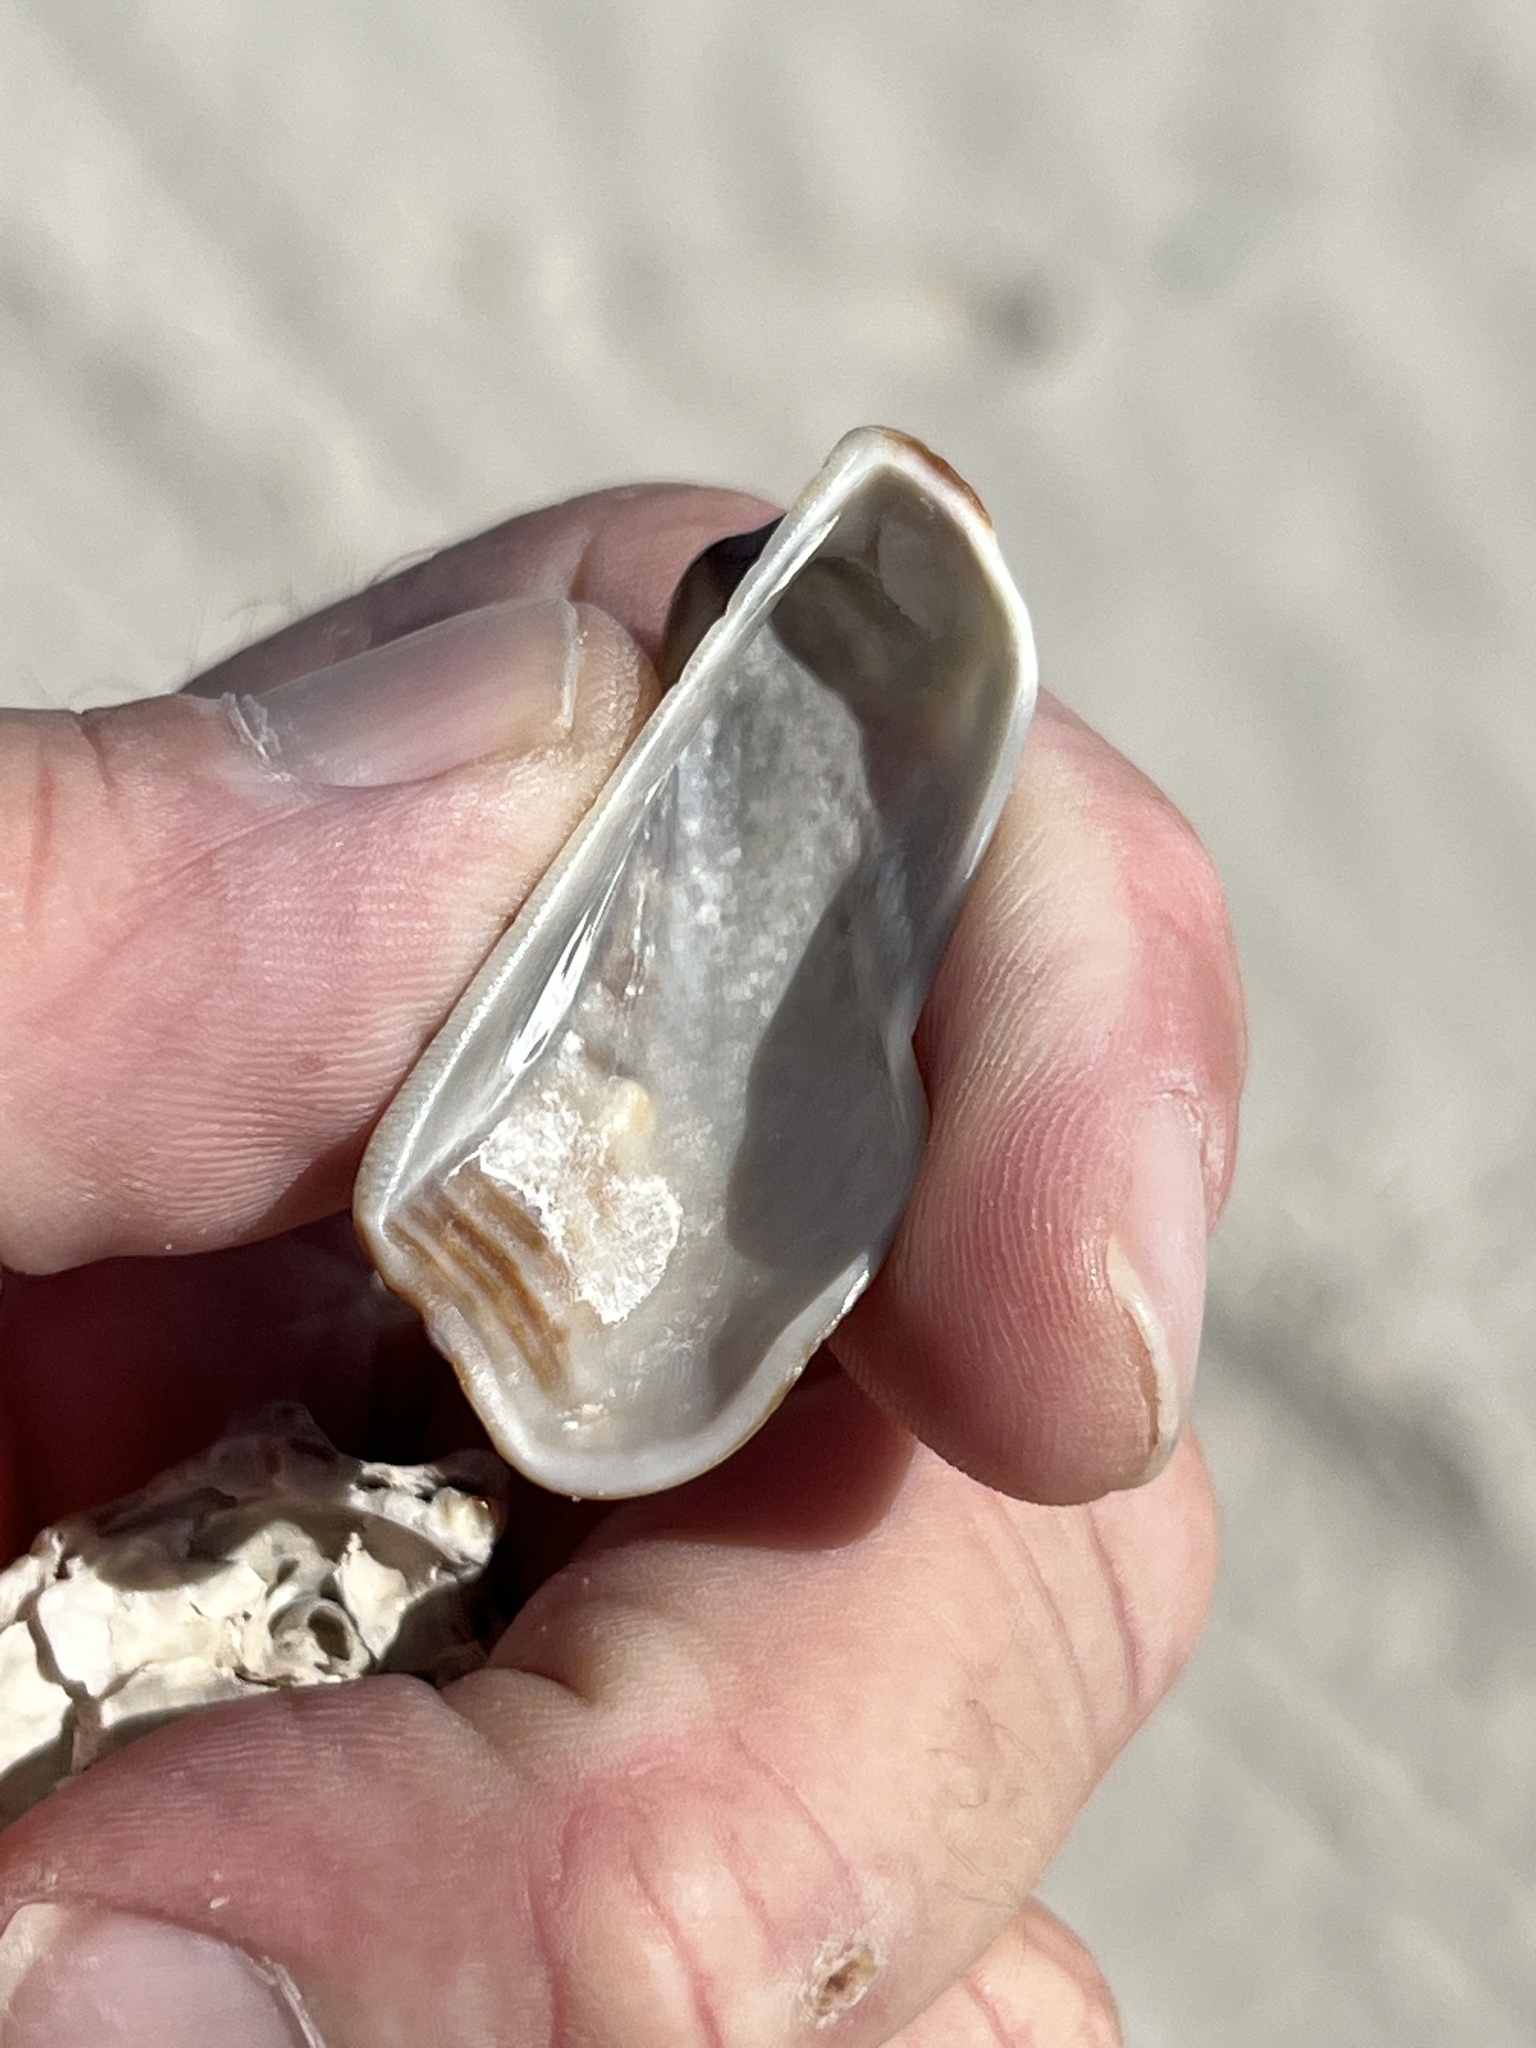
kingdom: Animalia
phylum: Mollusca
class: Bivalvia
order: Arcida
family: Arcidae
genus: Lamarcka
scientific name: Lamarcka imbricata
